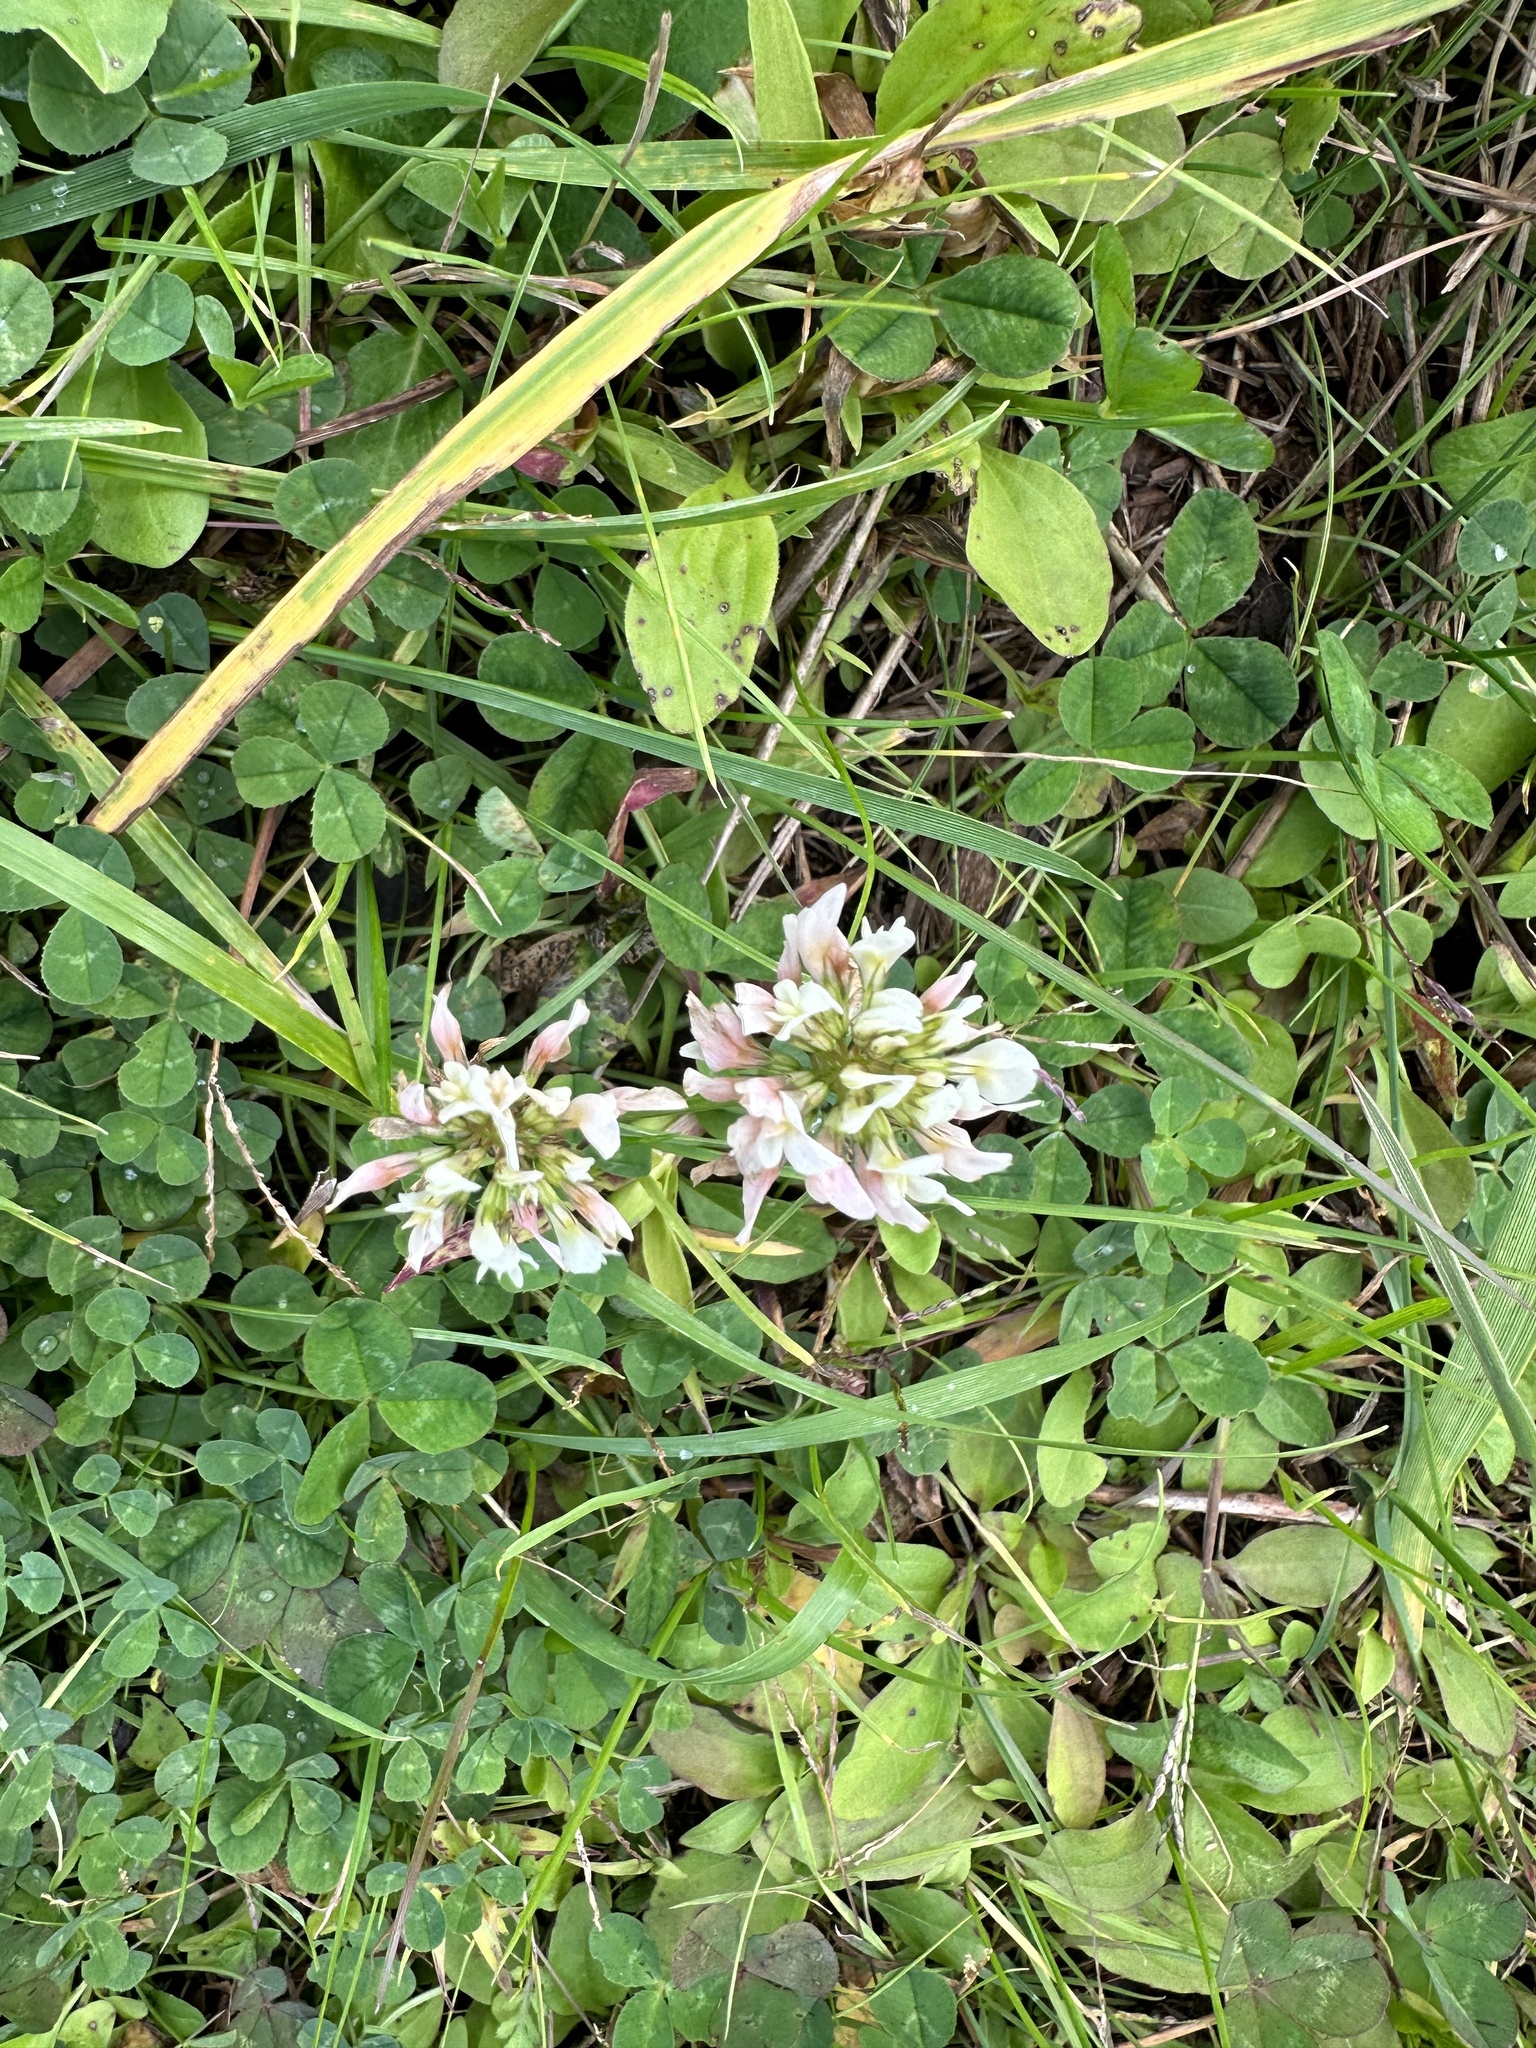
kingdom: Plantae
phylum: Tracheophyta
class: Magnoliopsida
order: Fabales
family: Fabaceae
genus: Trifolium
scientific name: Trifolium repens
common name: White clover
